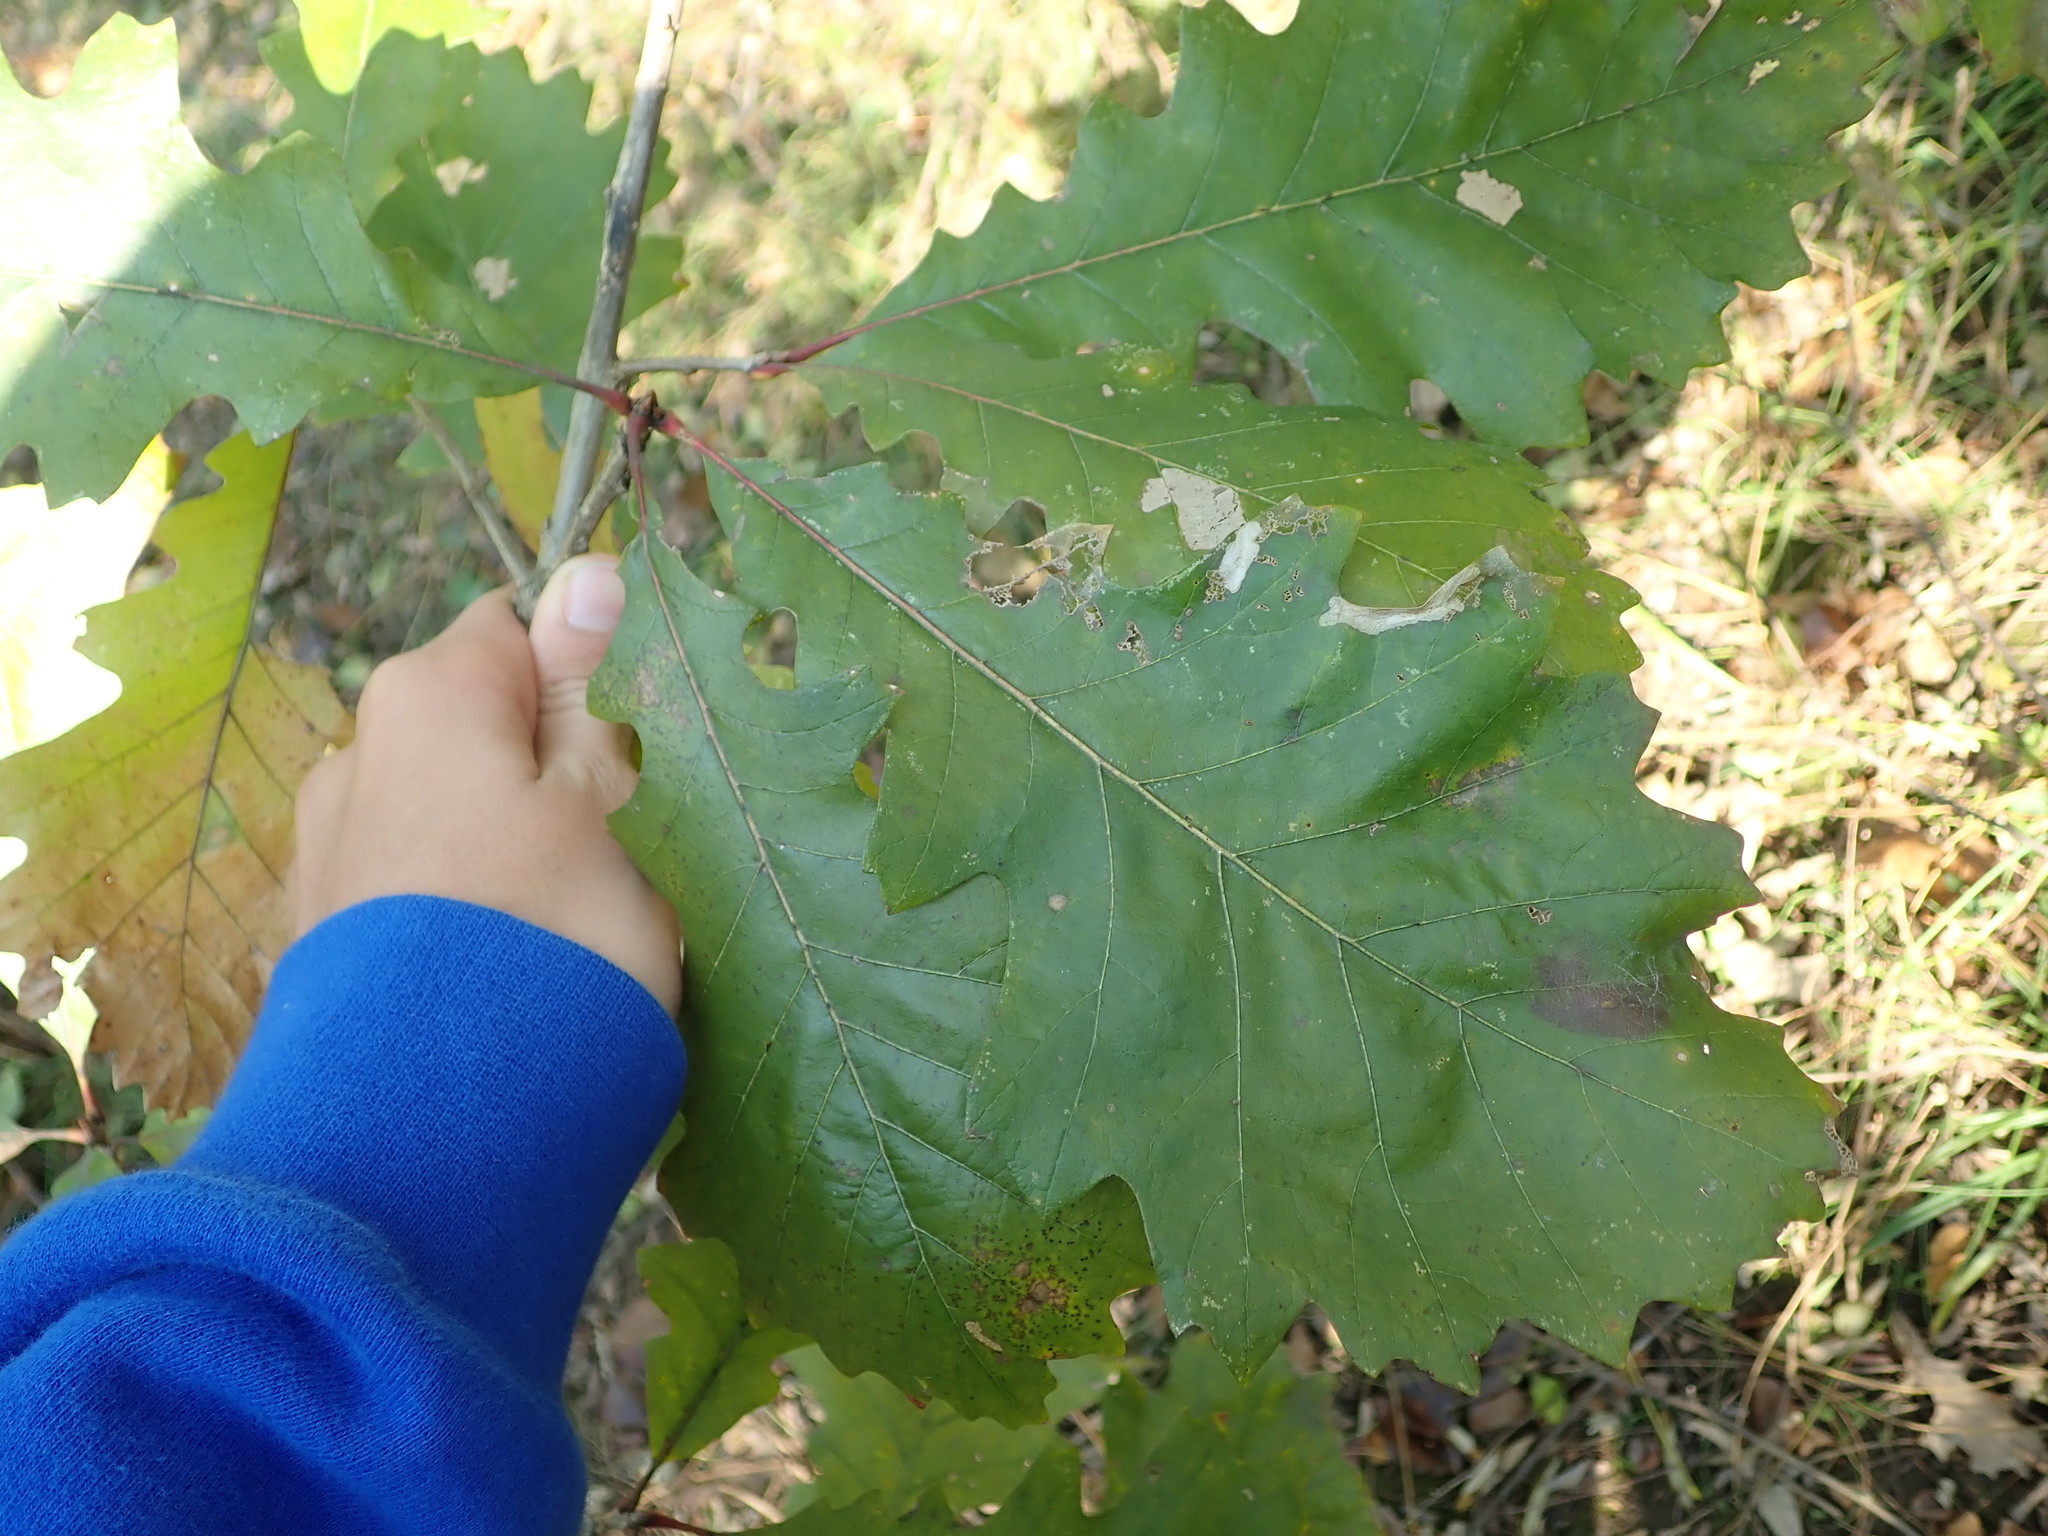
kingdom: Plantae
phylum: Tracheophyta
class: Magnoliopsida
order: Fagales
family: Fagaceae
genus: Quercus
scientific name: Quercus bicolor
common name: Swamp white oak
